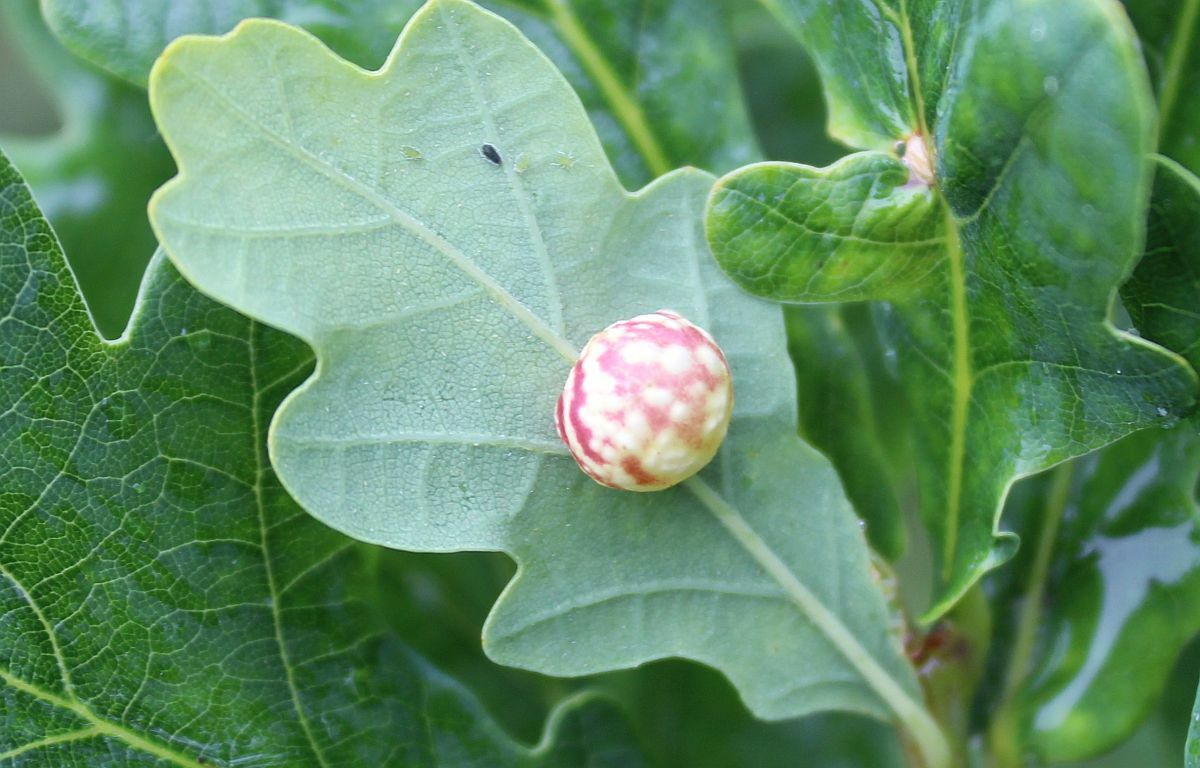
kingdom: Animalia
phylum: Arthropoda
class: Insecta
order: Hymenoptera
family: Cynipidae
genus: Cynips
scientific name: Cynips longiventris
